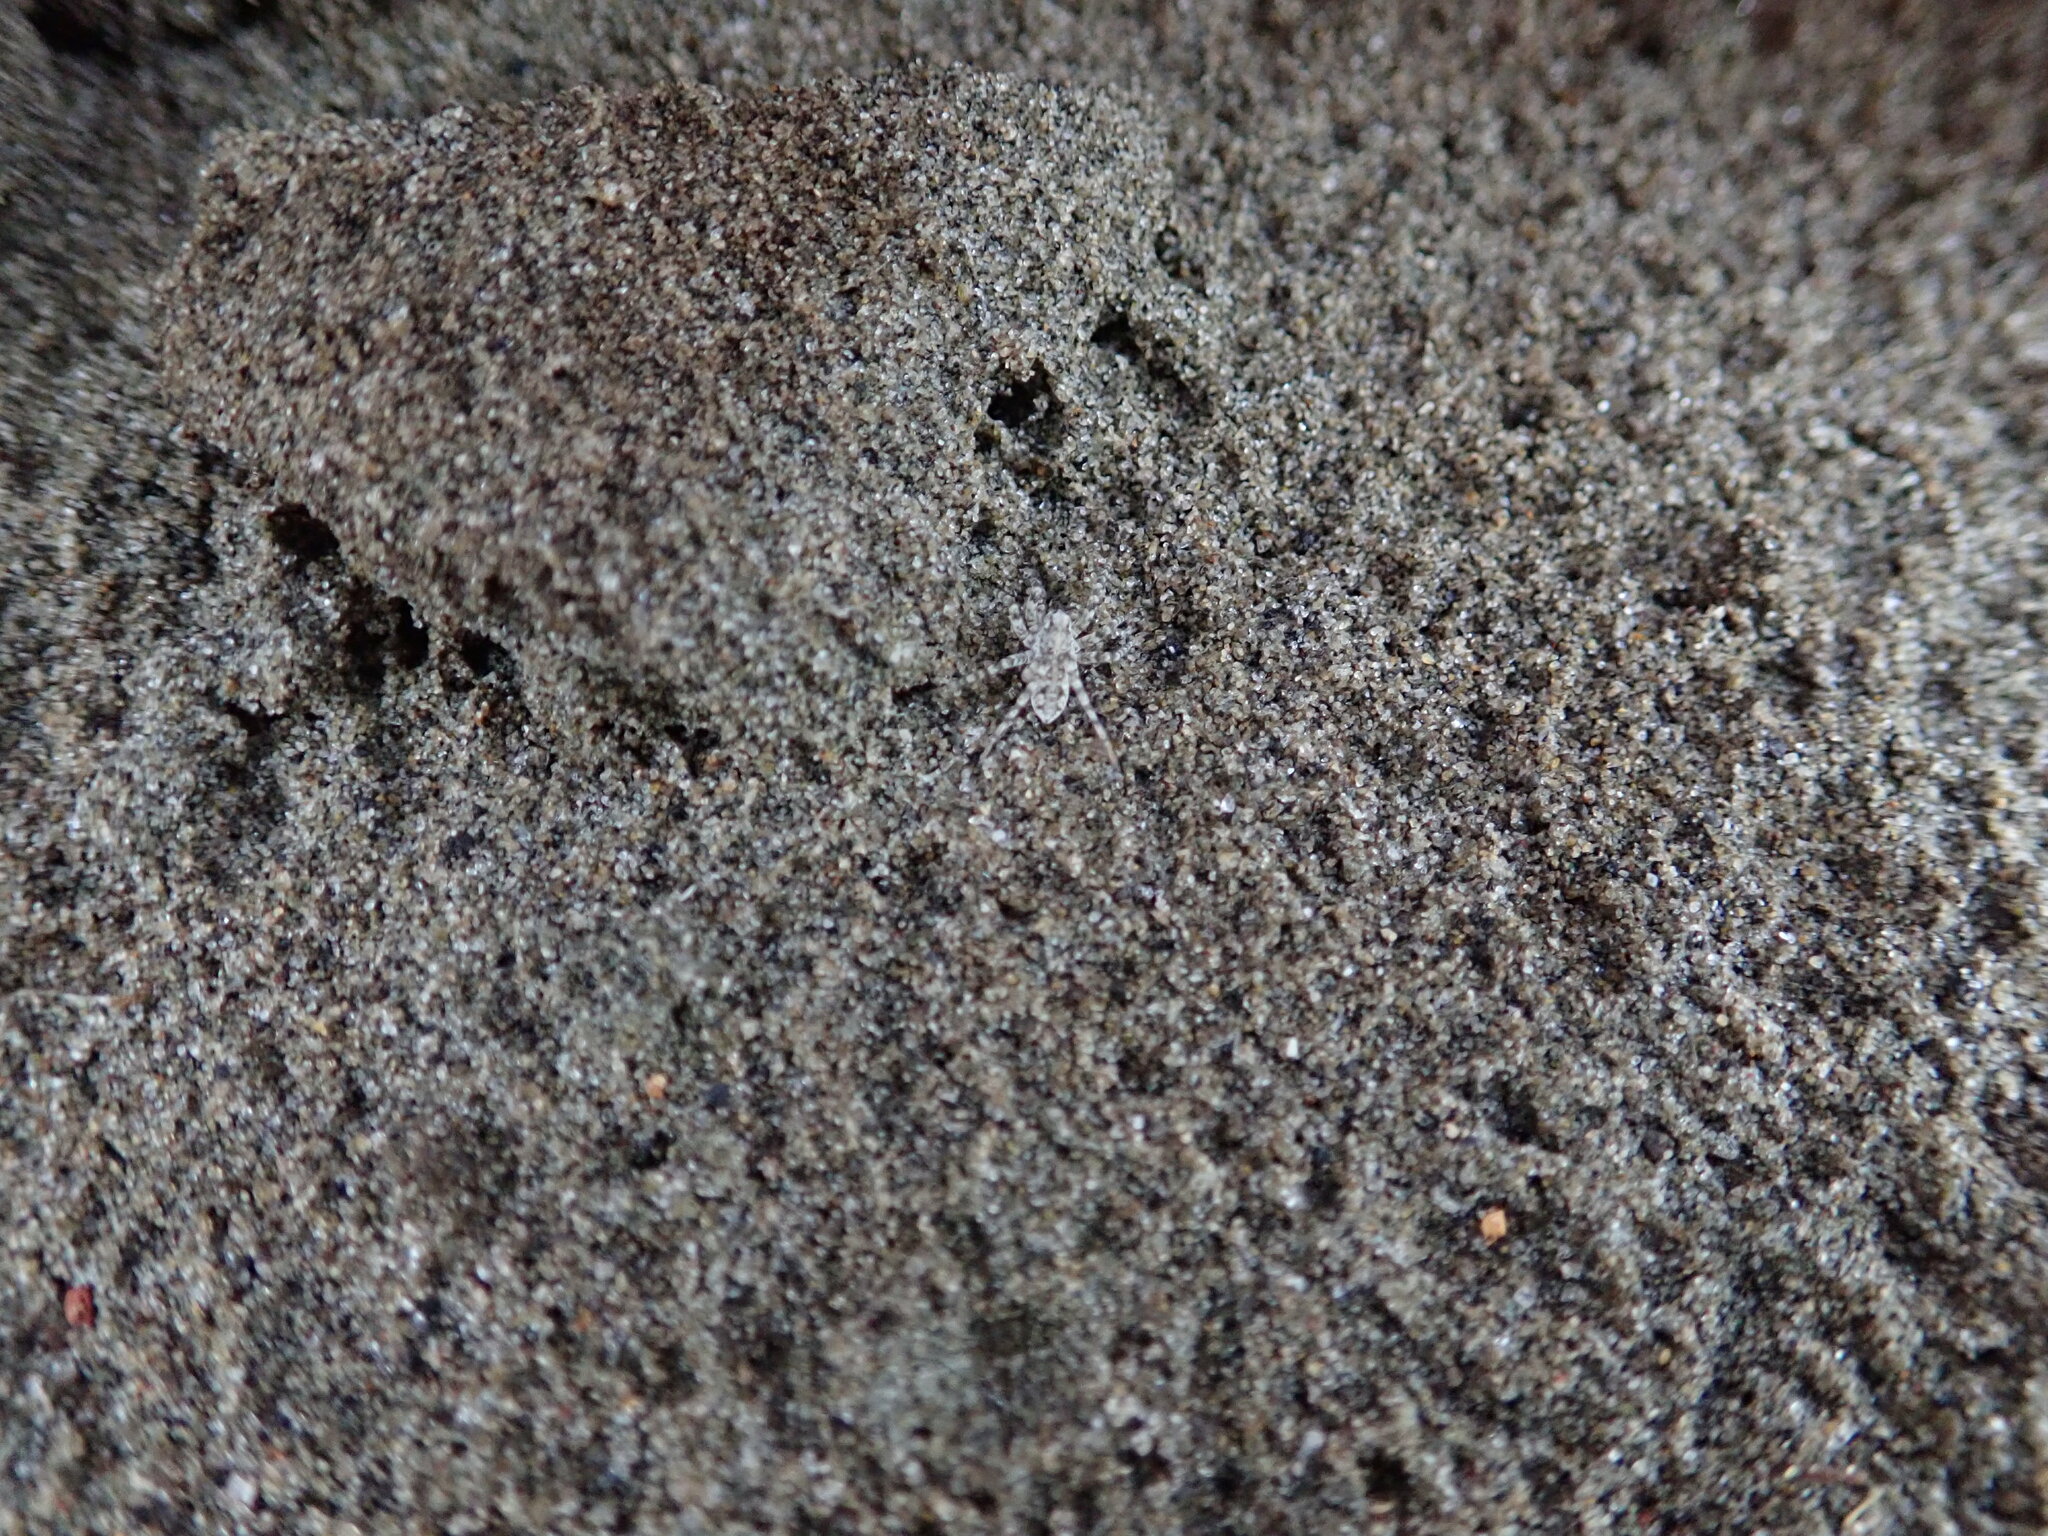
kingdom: Animalia
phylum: Arthropoda
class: Arachnida
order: Araneae
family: Lycosidae
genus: Anoteropsis
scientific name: Anoteropsis litoralis
